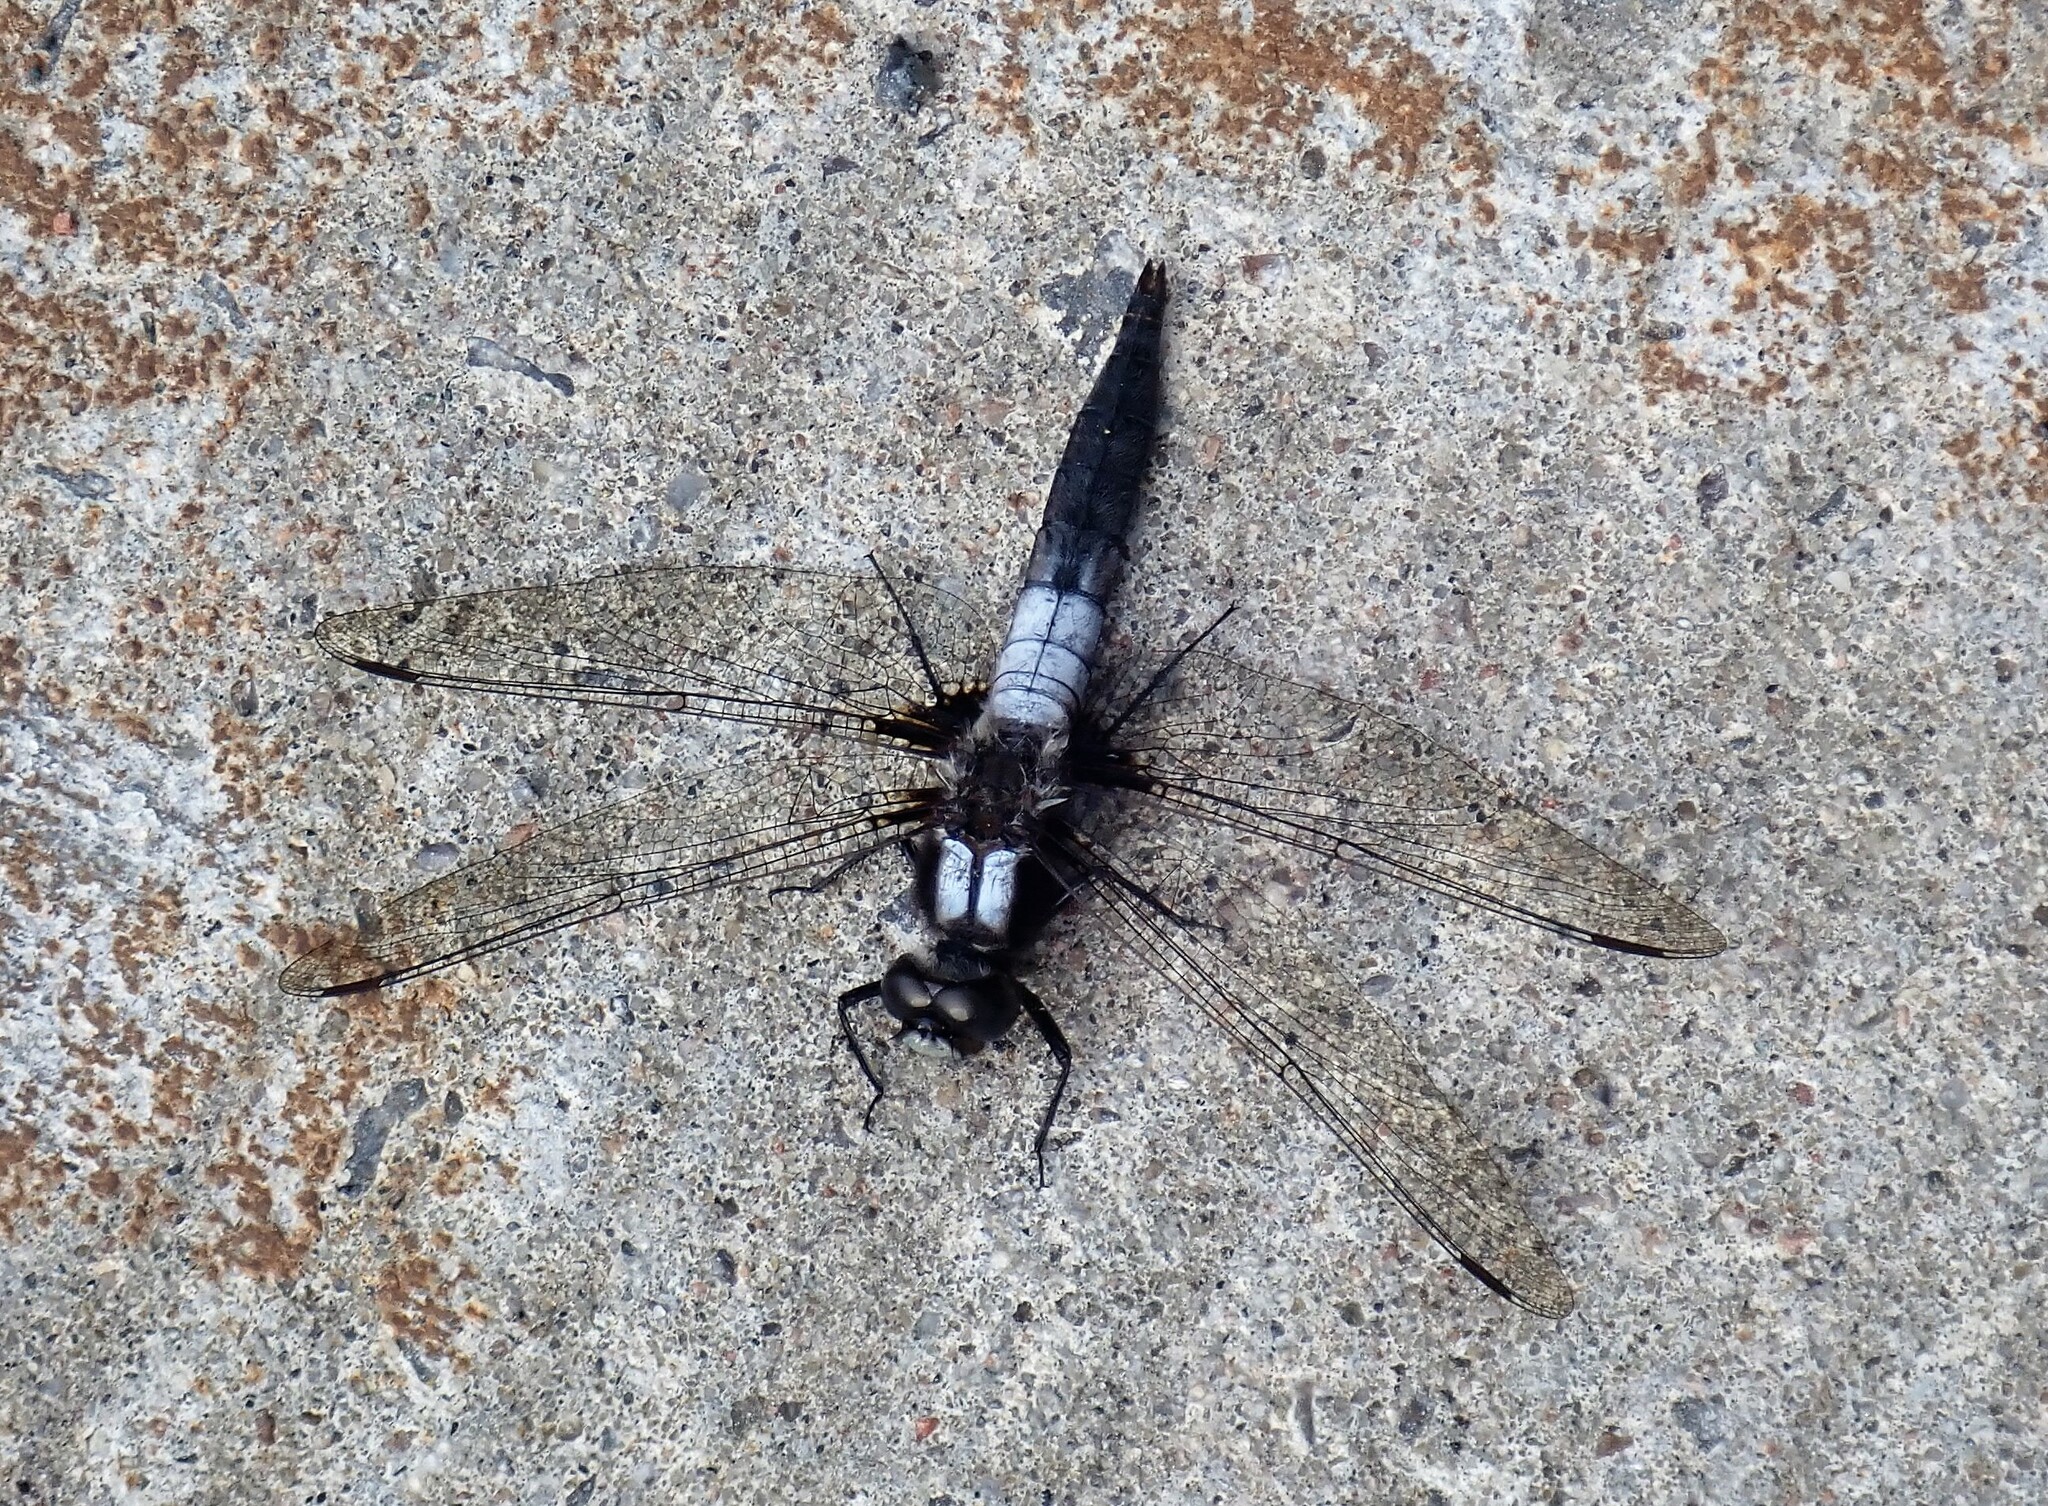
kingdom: Animalia
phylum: Arthropoda
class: Insecta
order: Odonata
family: Libellulidae
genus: Ladona
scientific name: Ladona julia
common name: Chalk-fronted corporal
